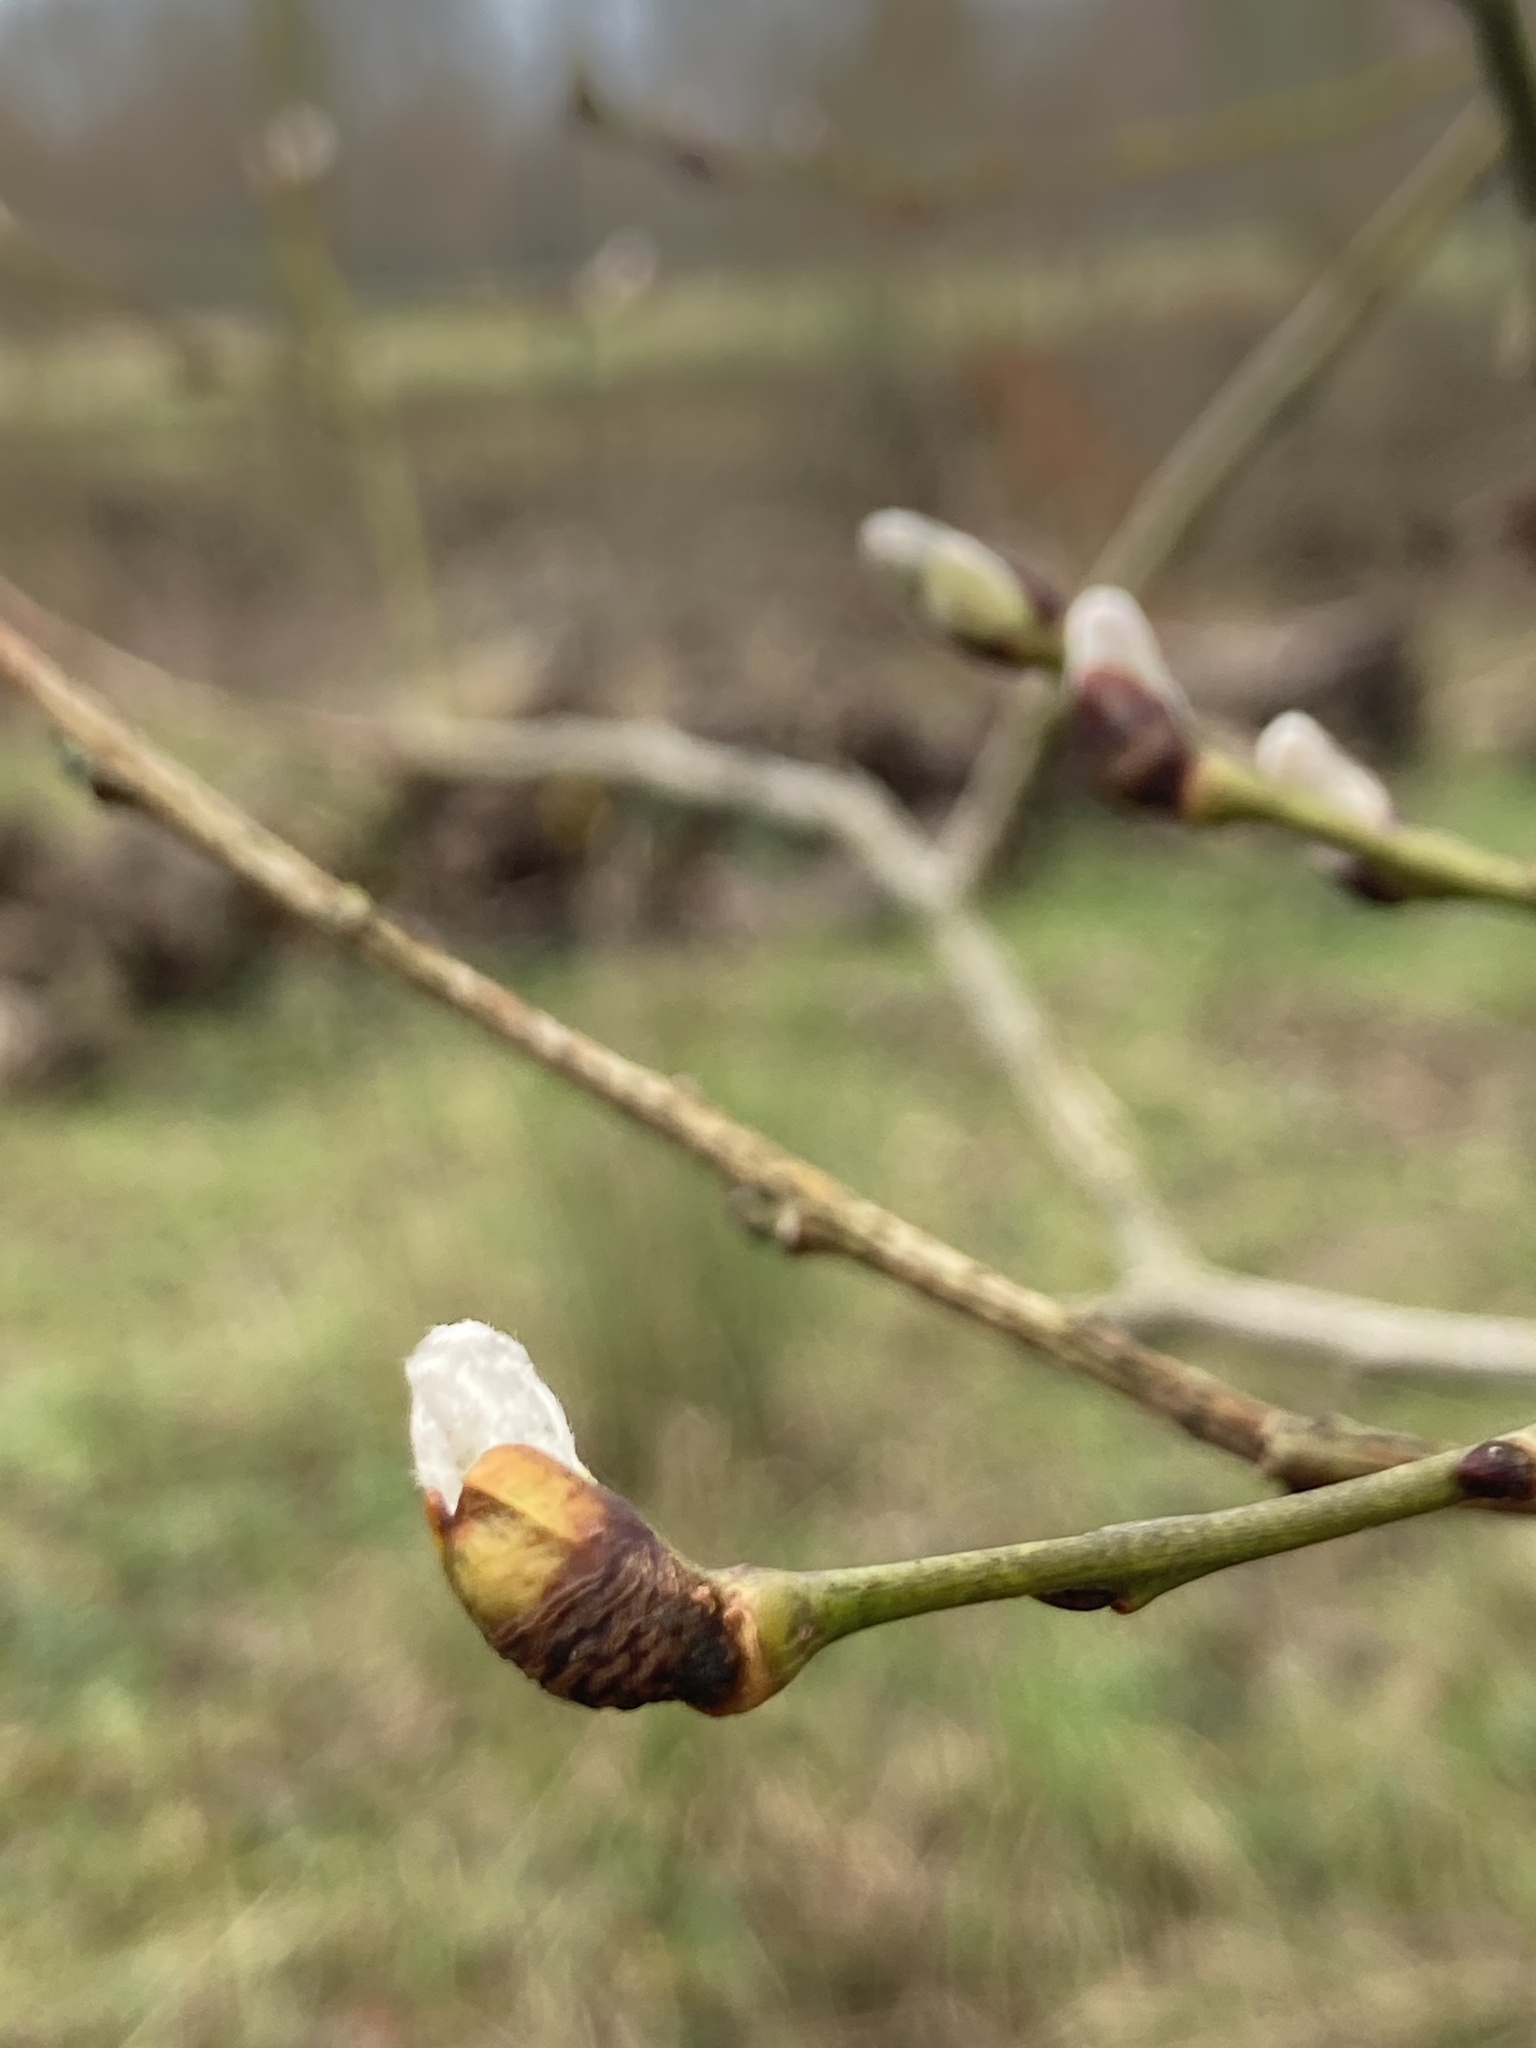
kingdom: Plantae
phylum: Tracheophyta
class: Magnoliopsida
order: Malpighiales
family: Salicaceae
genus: Salix
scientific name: Salix caprea
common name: Goat willow
